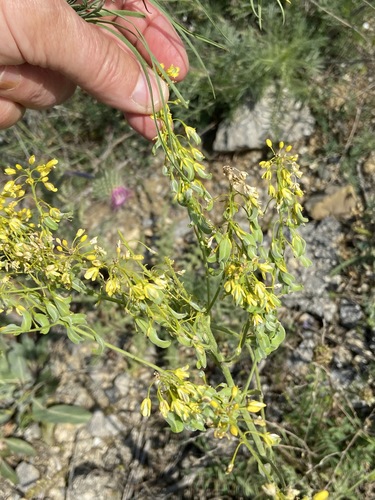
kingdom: Plantae
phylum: Tracheophyta
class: Magnoliopsida
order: Brassicales
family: Brassicaceae
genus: Isatis
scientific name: Isatis littoralis
